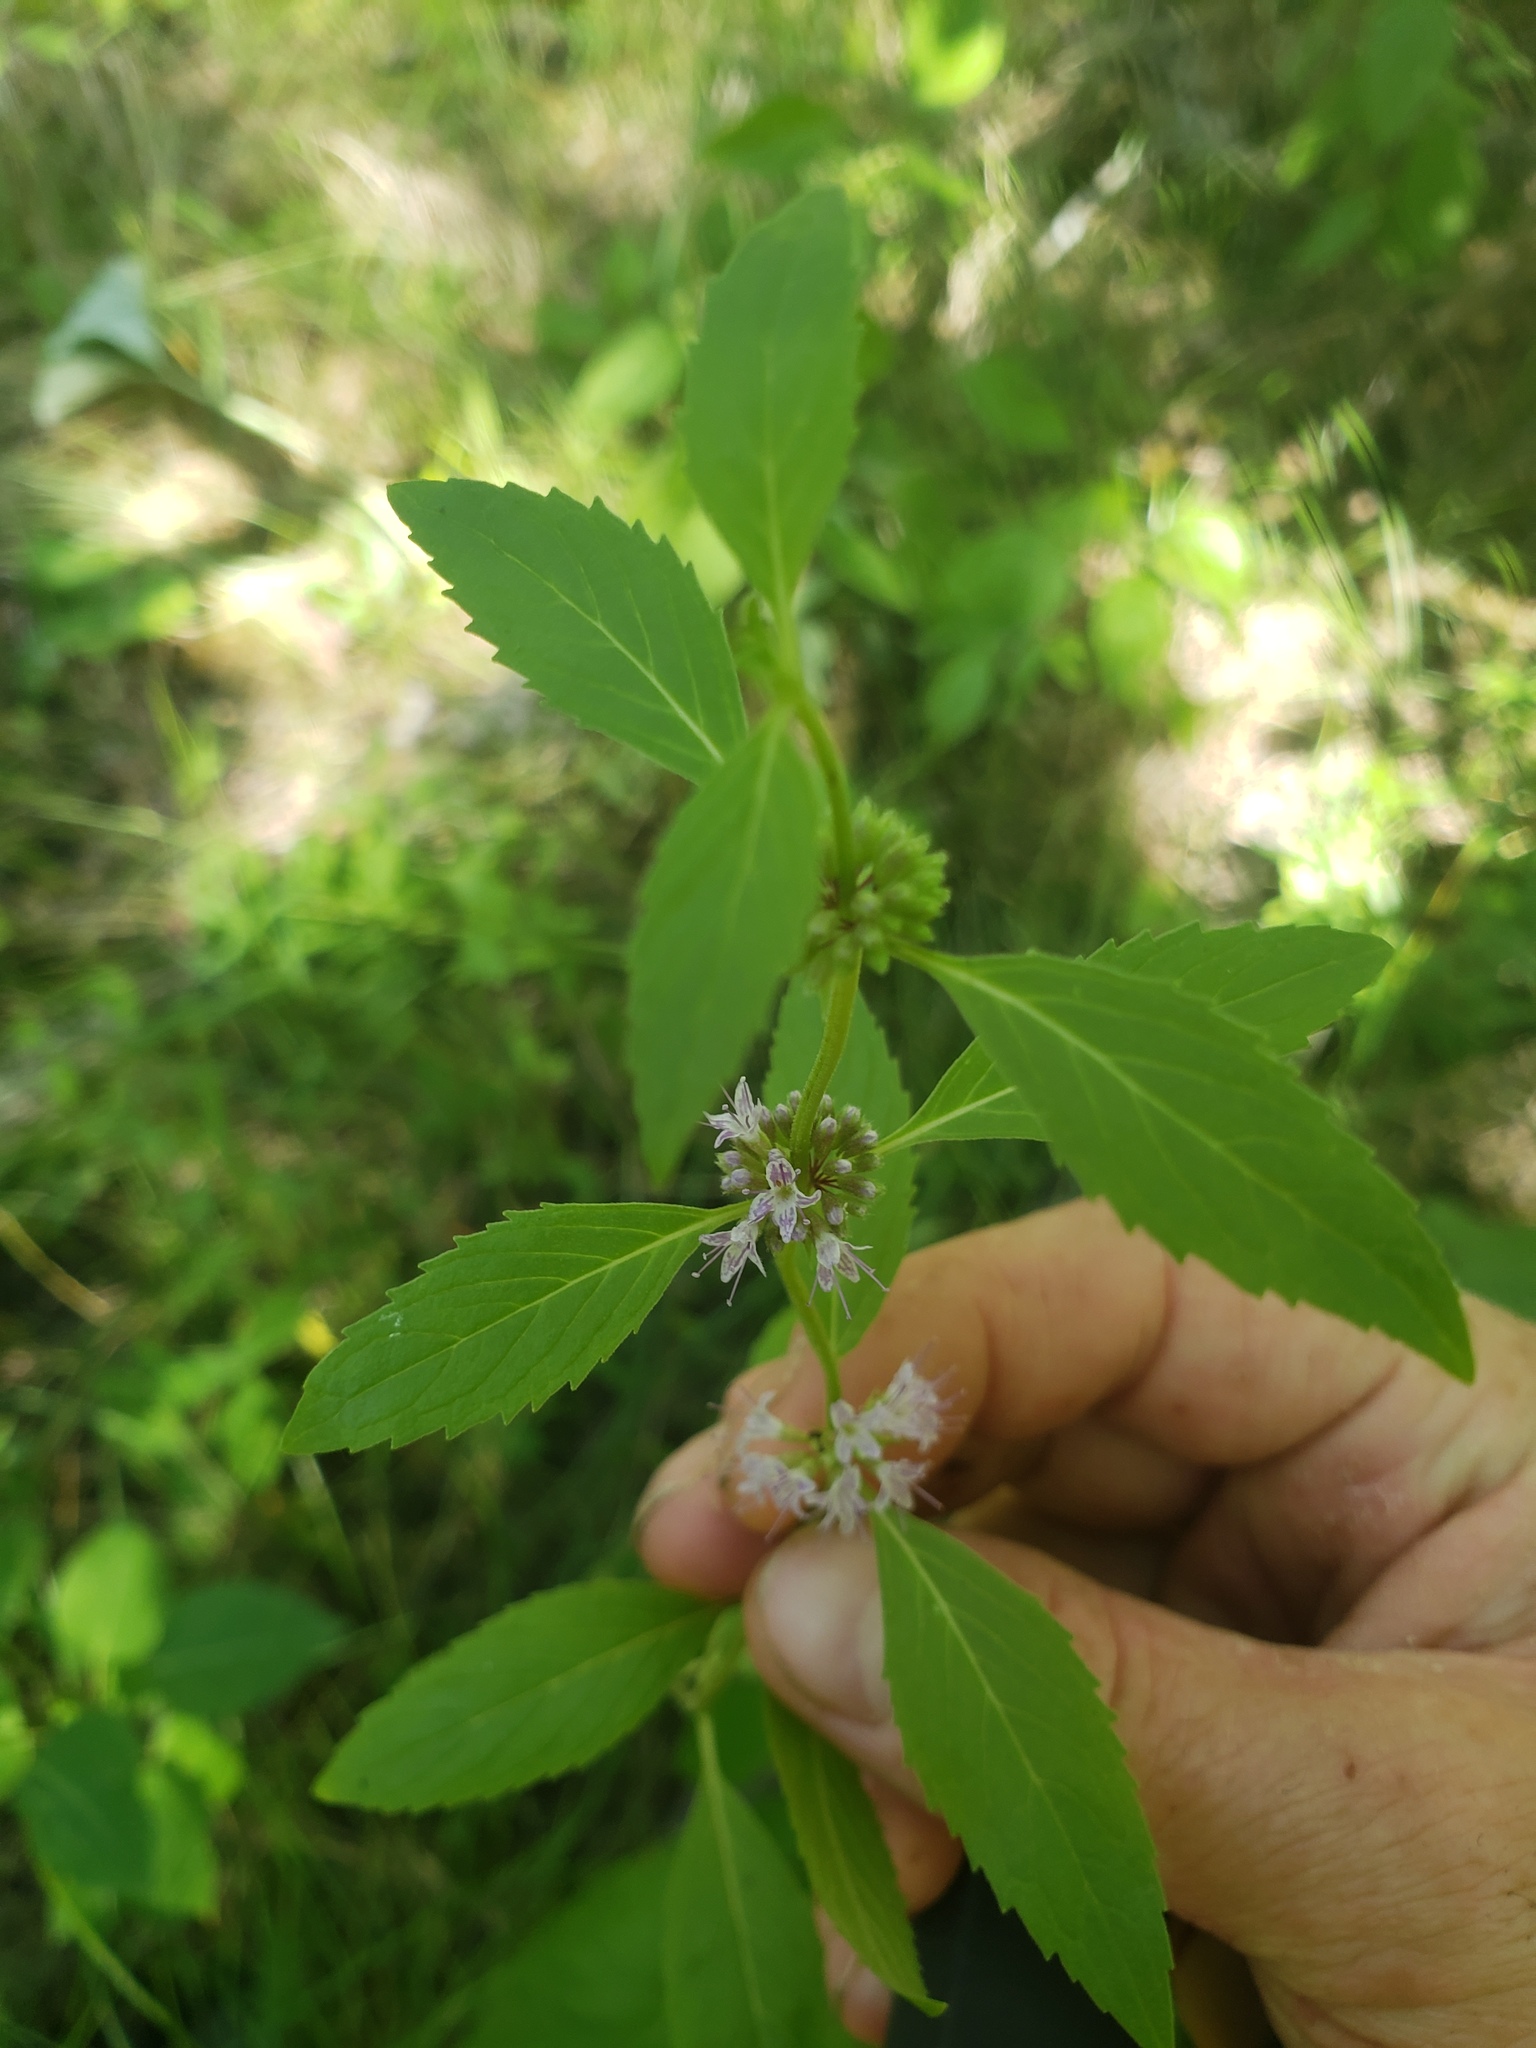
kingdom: Plantae
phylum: Tracheophyta
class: Magnoliopsida
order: Lamiales
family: Lamiaceae
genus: Mentha
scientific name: Mentha canadensis
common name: American corn mint
